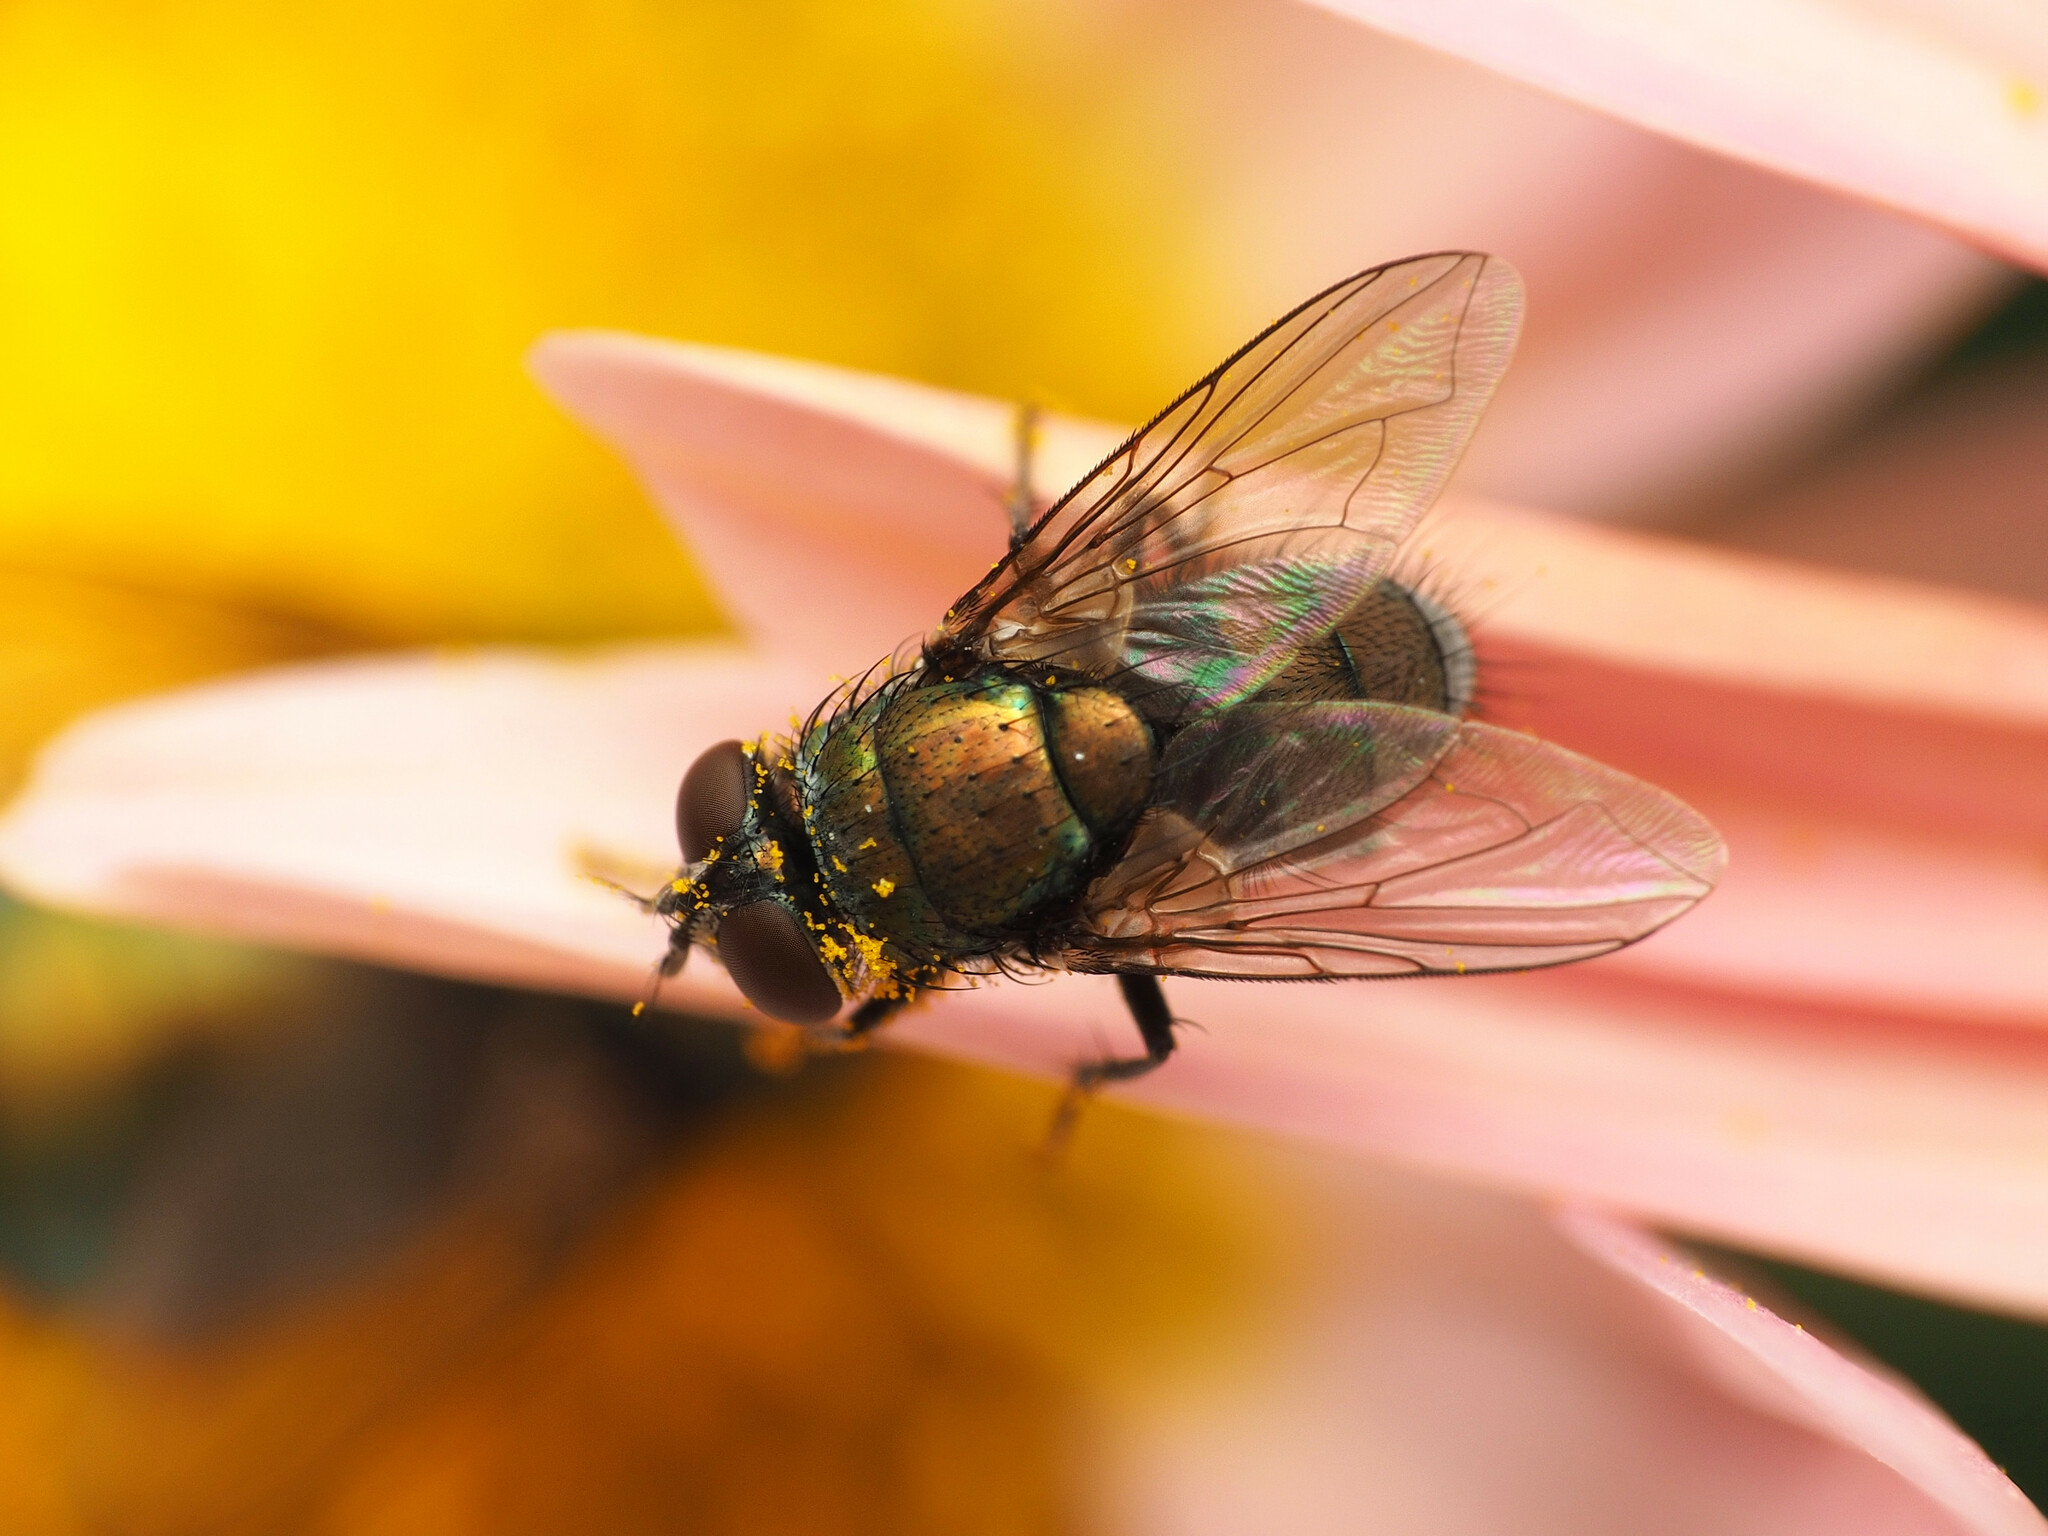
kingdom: Animalia
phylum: Arthropoda
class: Insecta
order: Diptera
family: Calliphoridae
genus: Lucilia
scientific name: Lucilia cuprina
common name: Sheep blow fly
